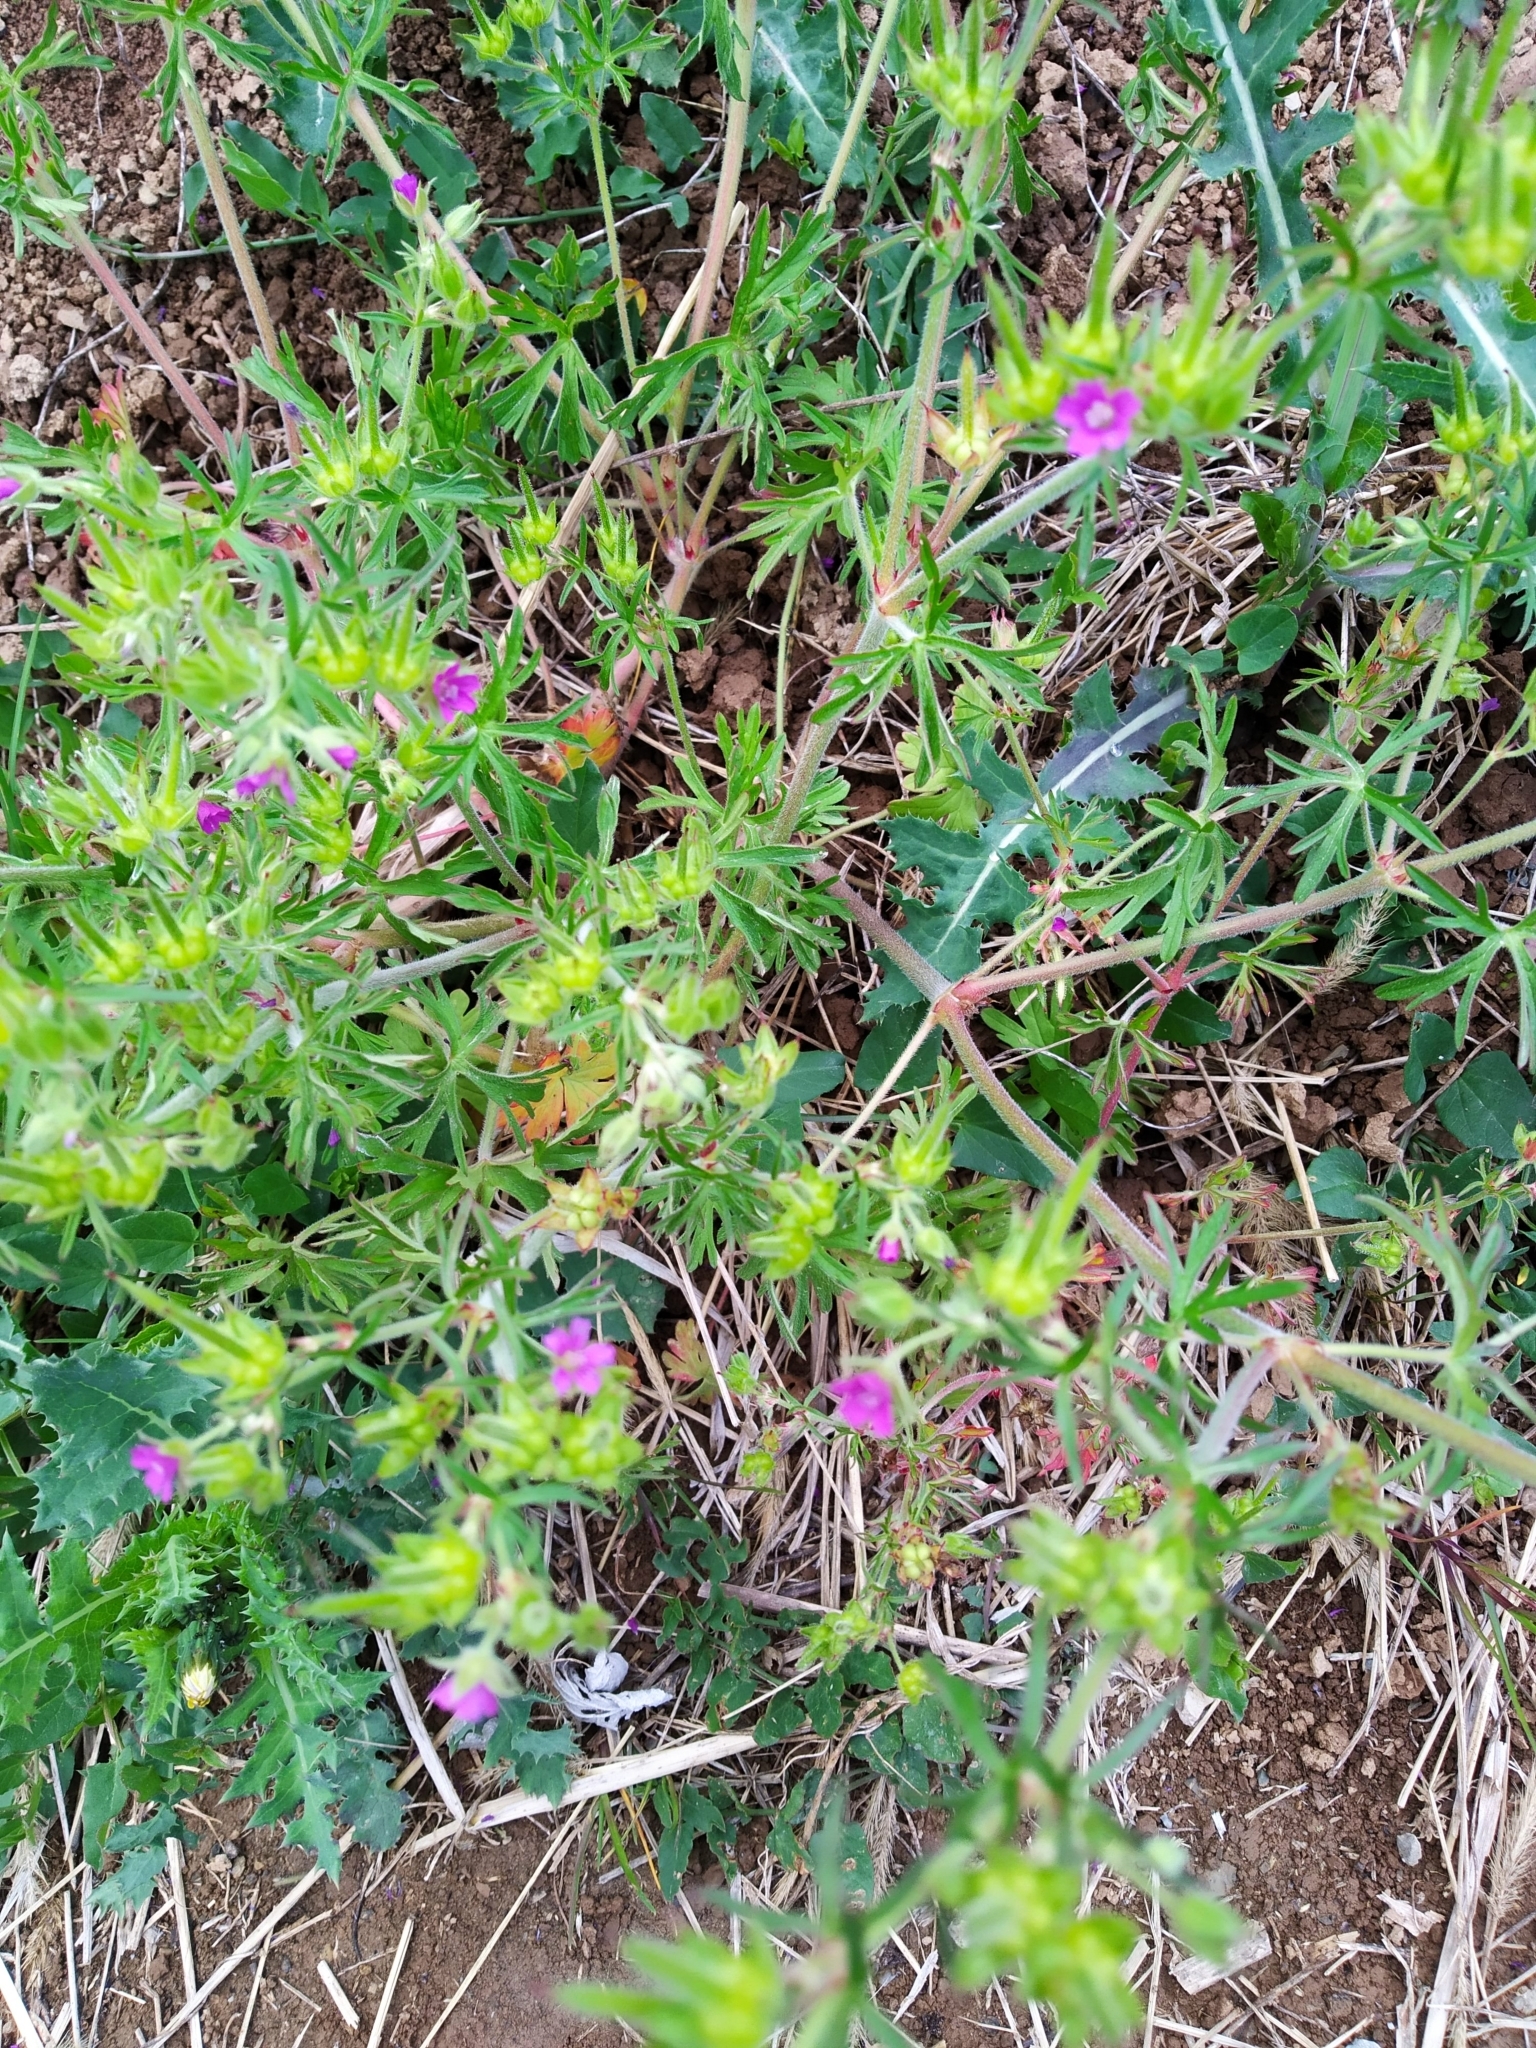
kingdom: Plantae
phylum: Tracheophyta
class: Magnoliopsida
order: Geraniales
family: Geraniaceae
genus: Geranium
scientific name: Geranium dissectum
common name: Cut-leaved crane's-bill
